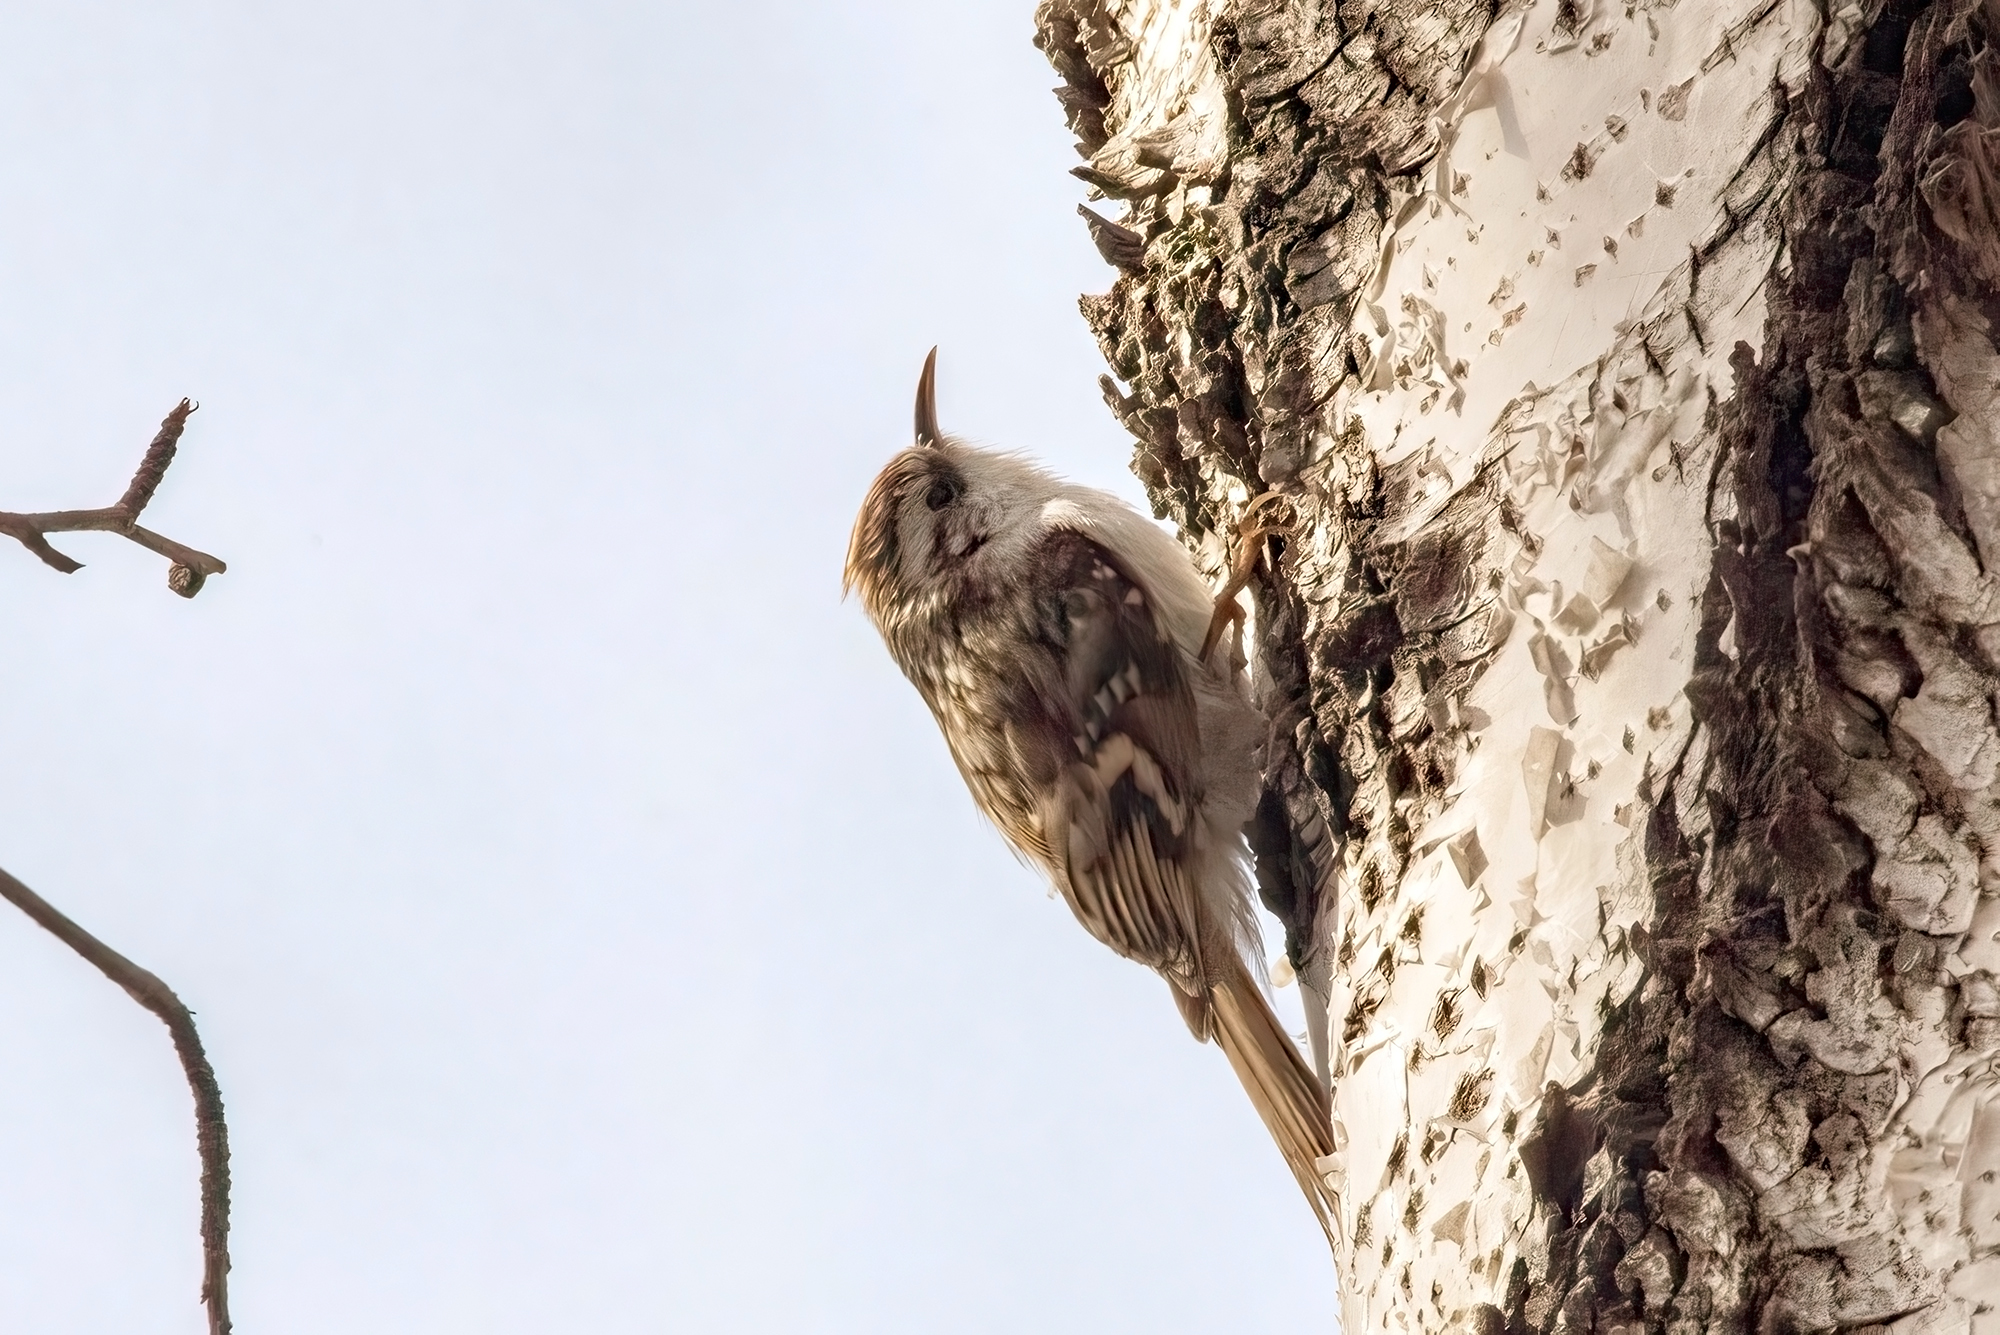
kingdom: Animalia
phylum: Chordata
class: Aves
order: Passeriformes
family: Certhiidae
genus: Certhia
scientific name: Certhia familiaris
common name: Eurasian treecreeper
